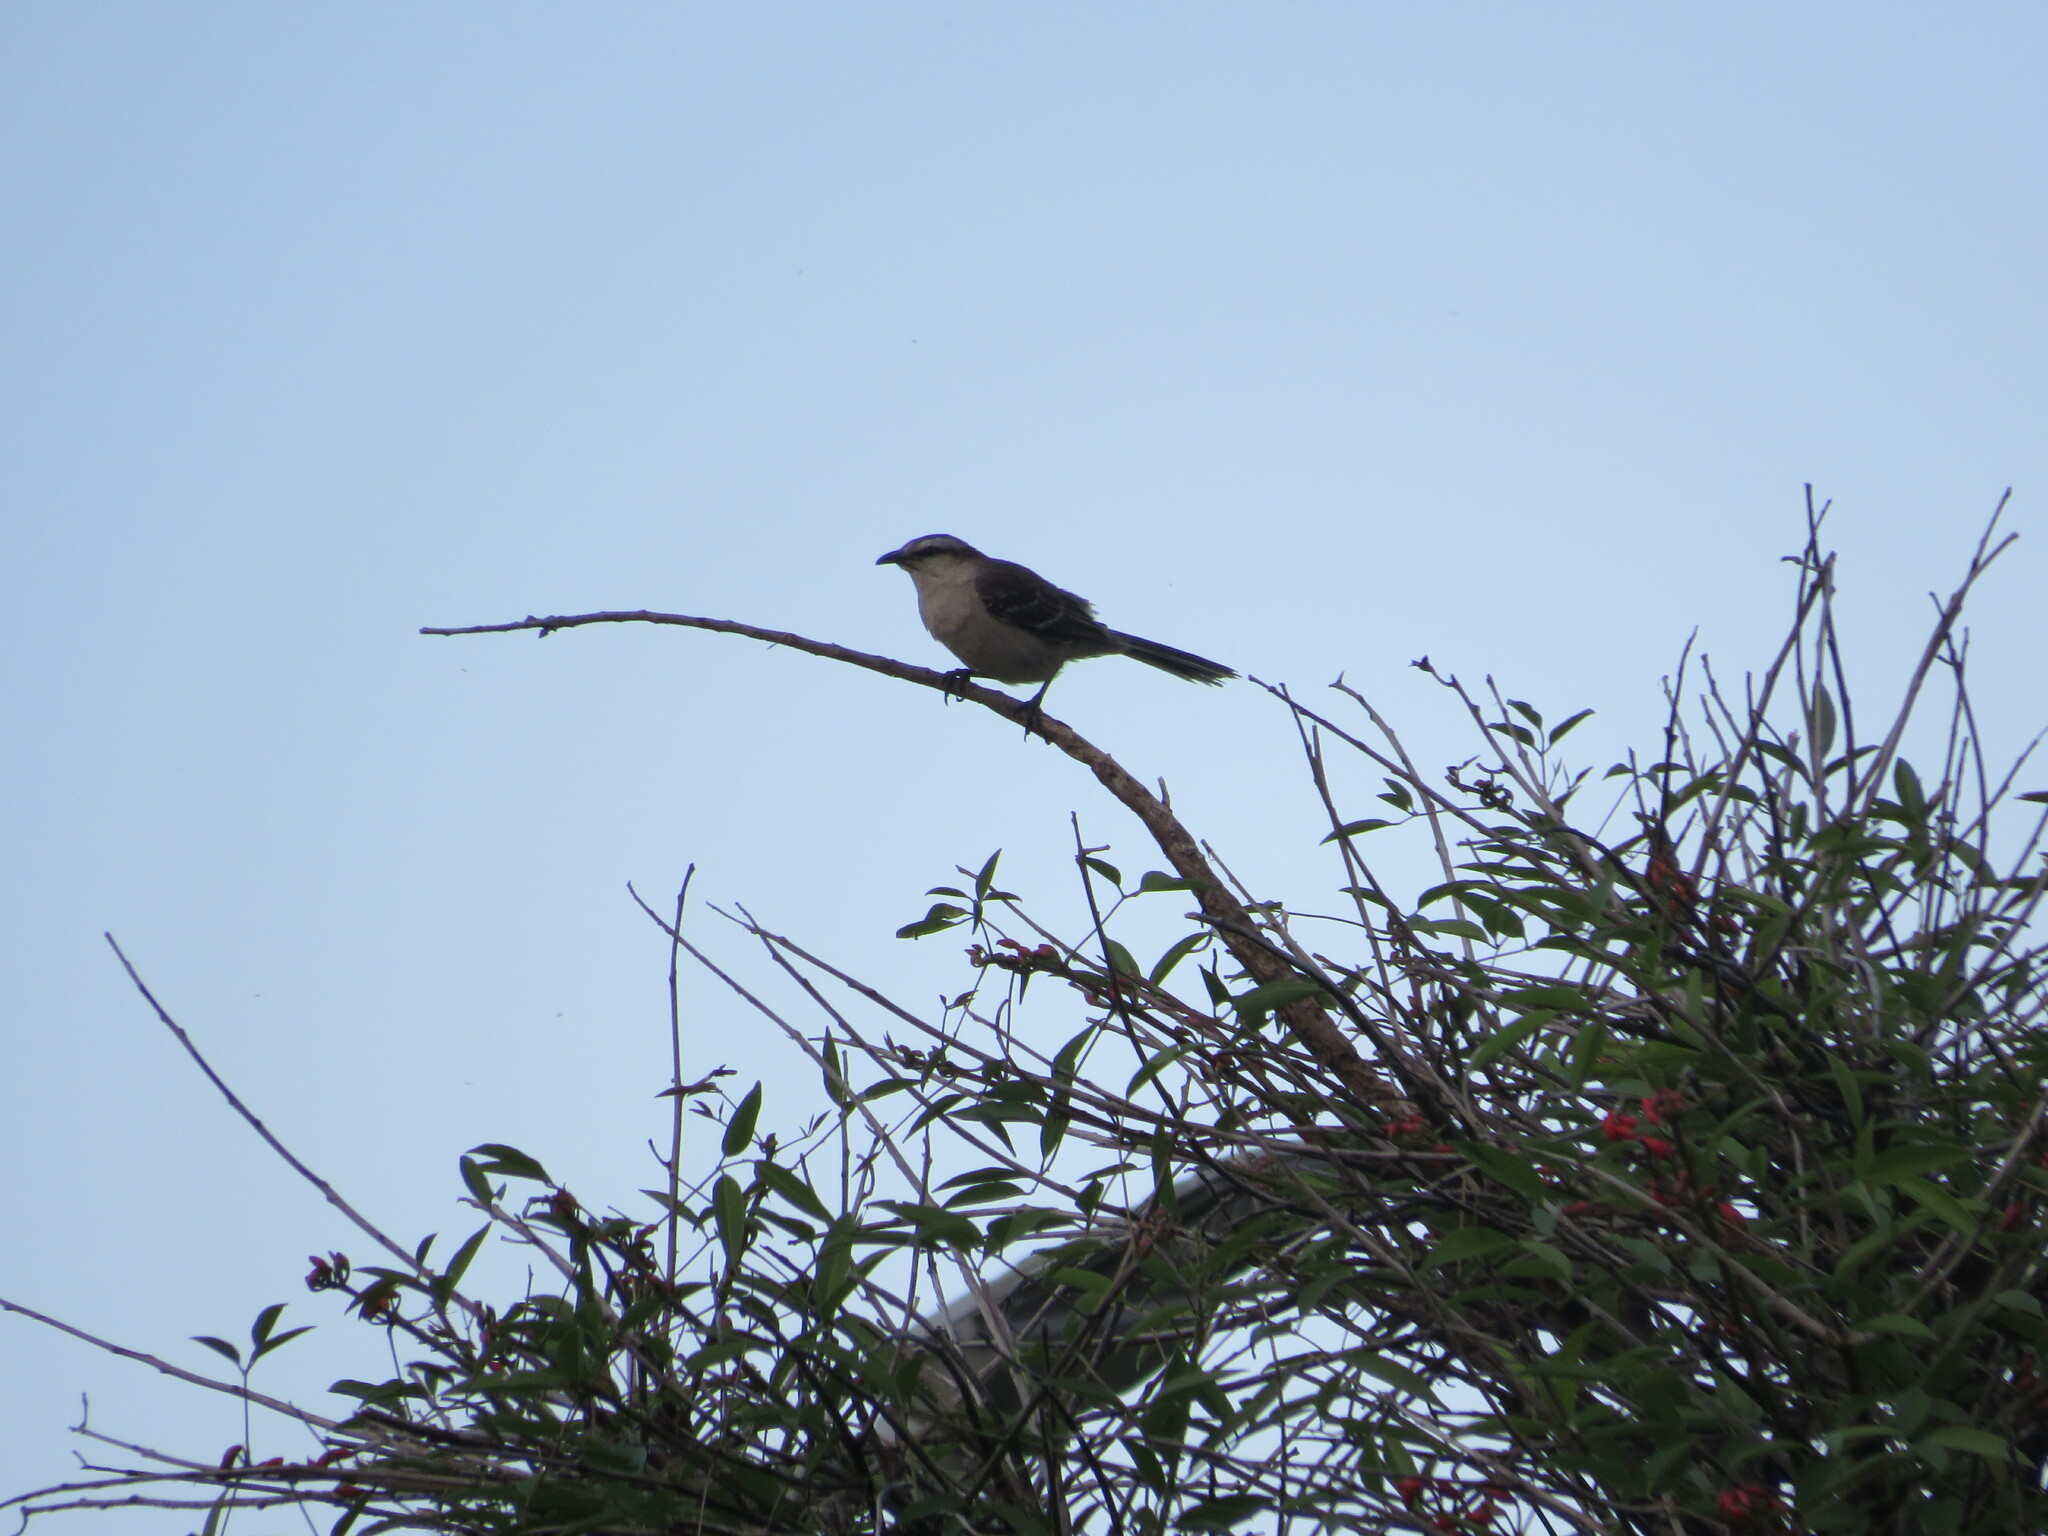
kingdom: Animalia
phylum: Chordata
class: Aves
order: Passeriformes
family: Mimidae
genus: Mimus
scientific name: Mimus saturninus
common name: Chalk-browed mockingbird
